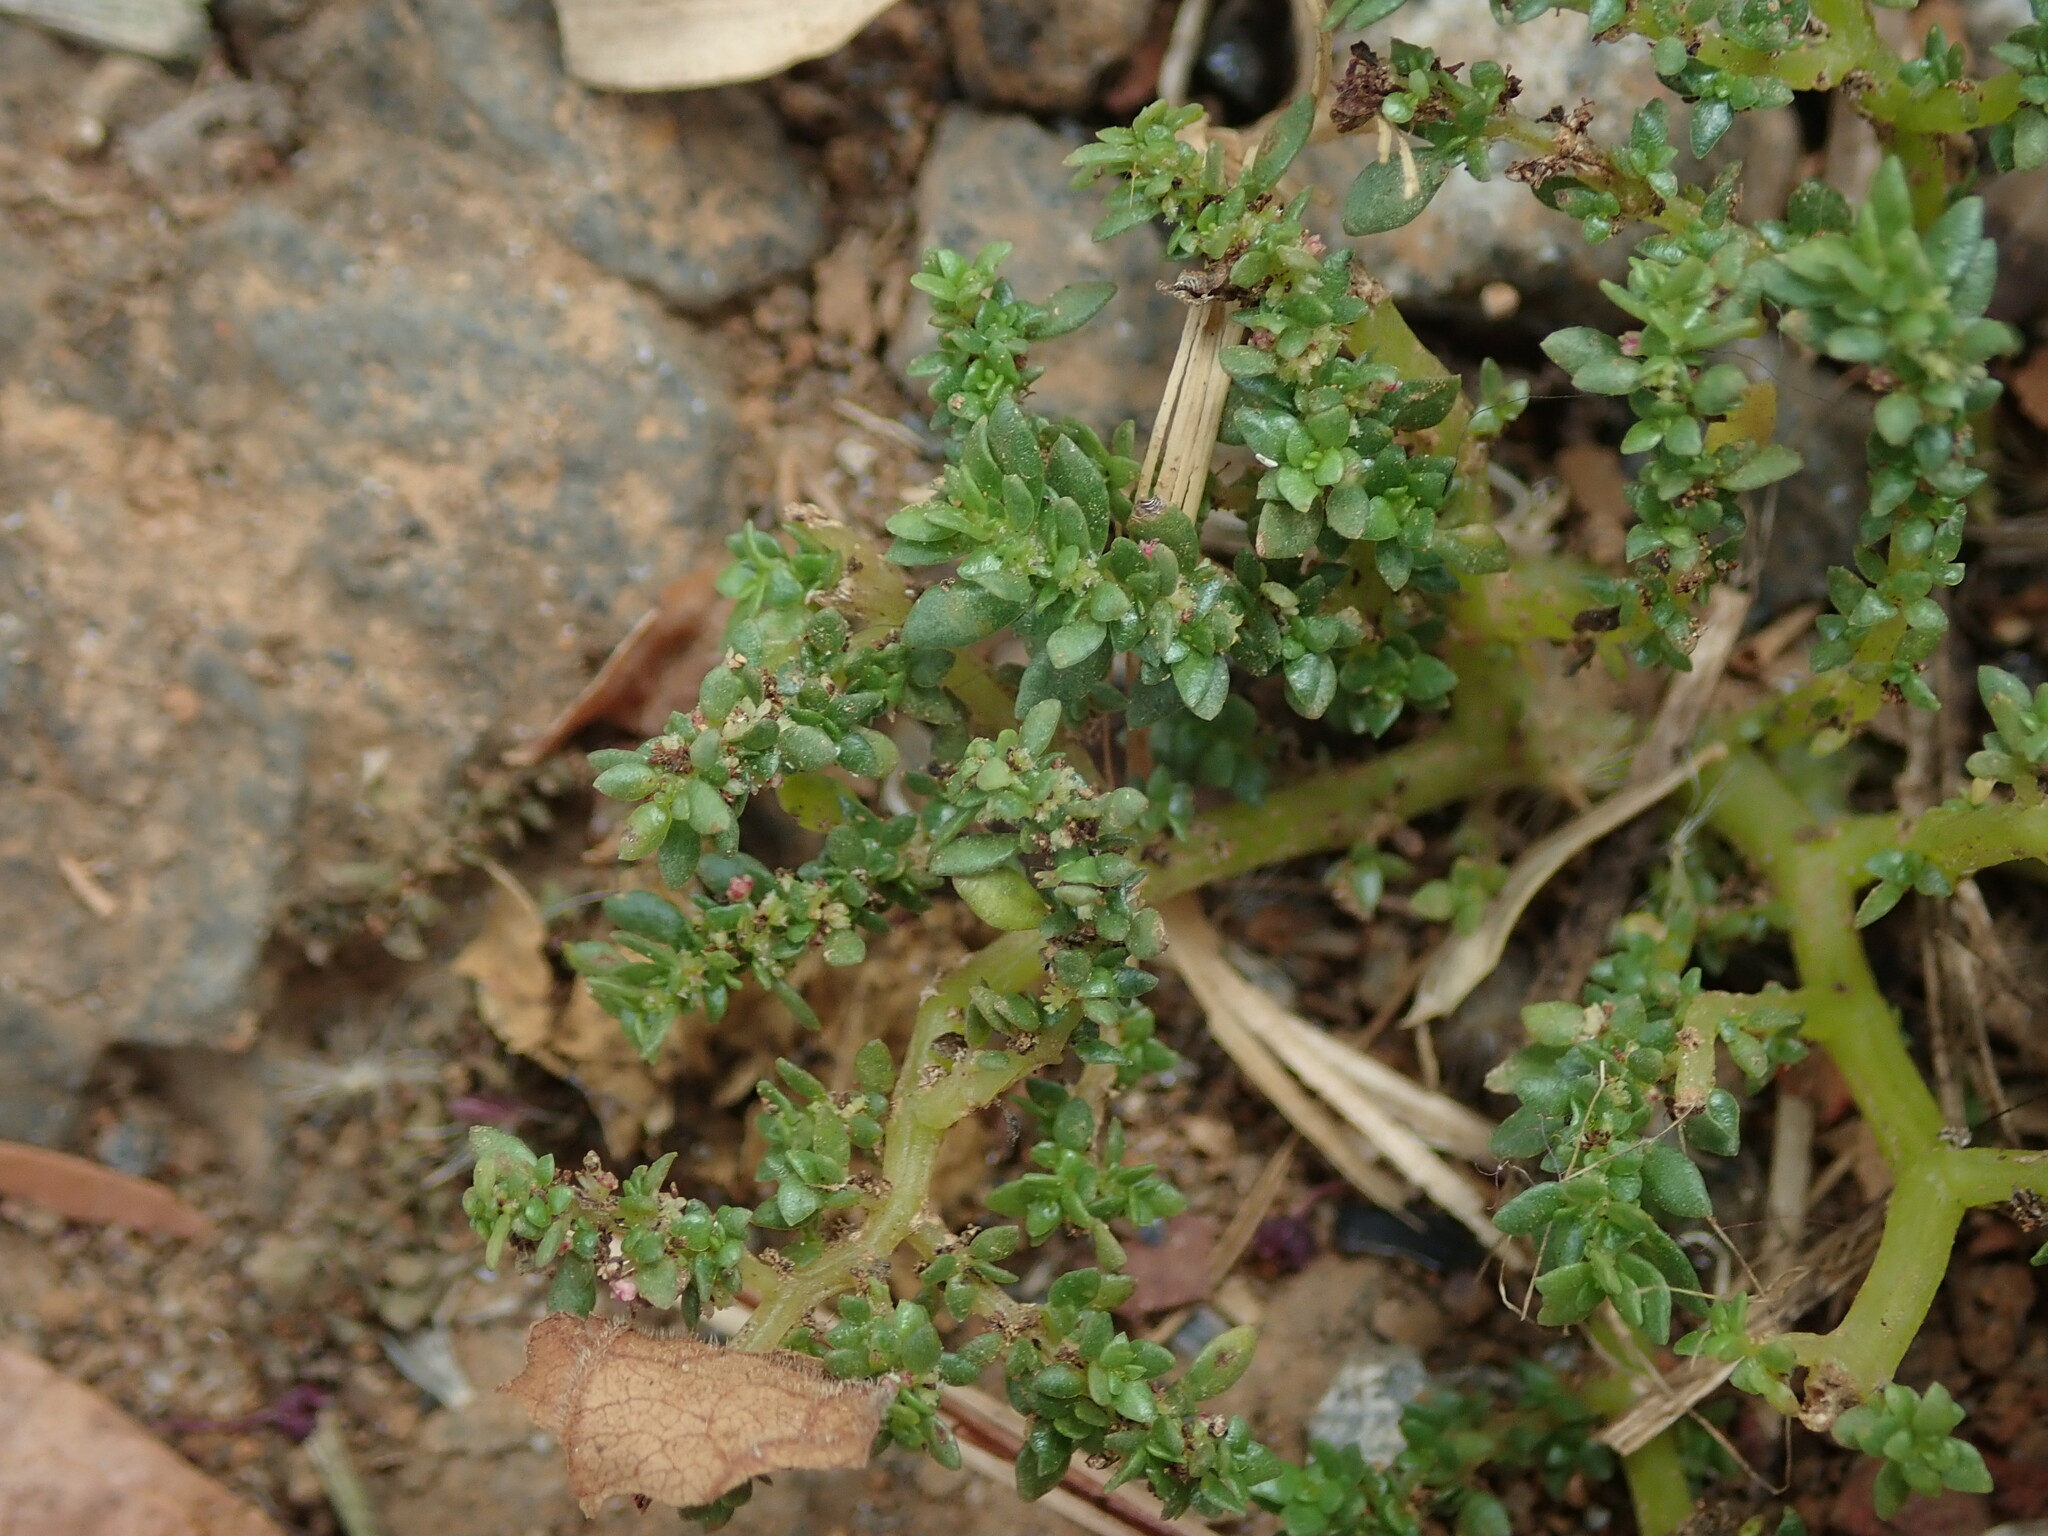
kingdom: Plantae
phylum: Tracheophyta
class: Magnoliopsida
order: Rosales
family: Urticaceae
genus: Pilea
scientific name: Pilea microphylla
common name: Artillery-plant
